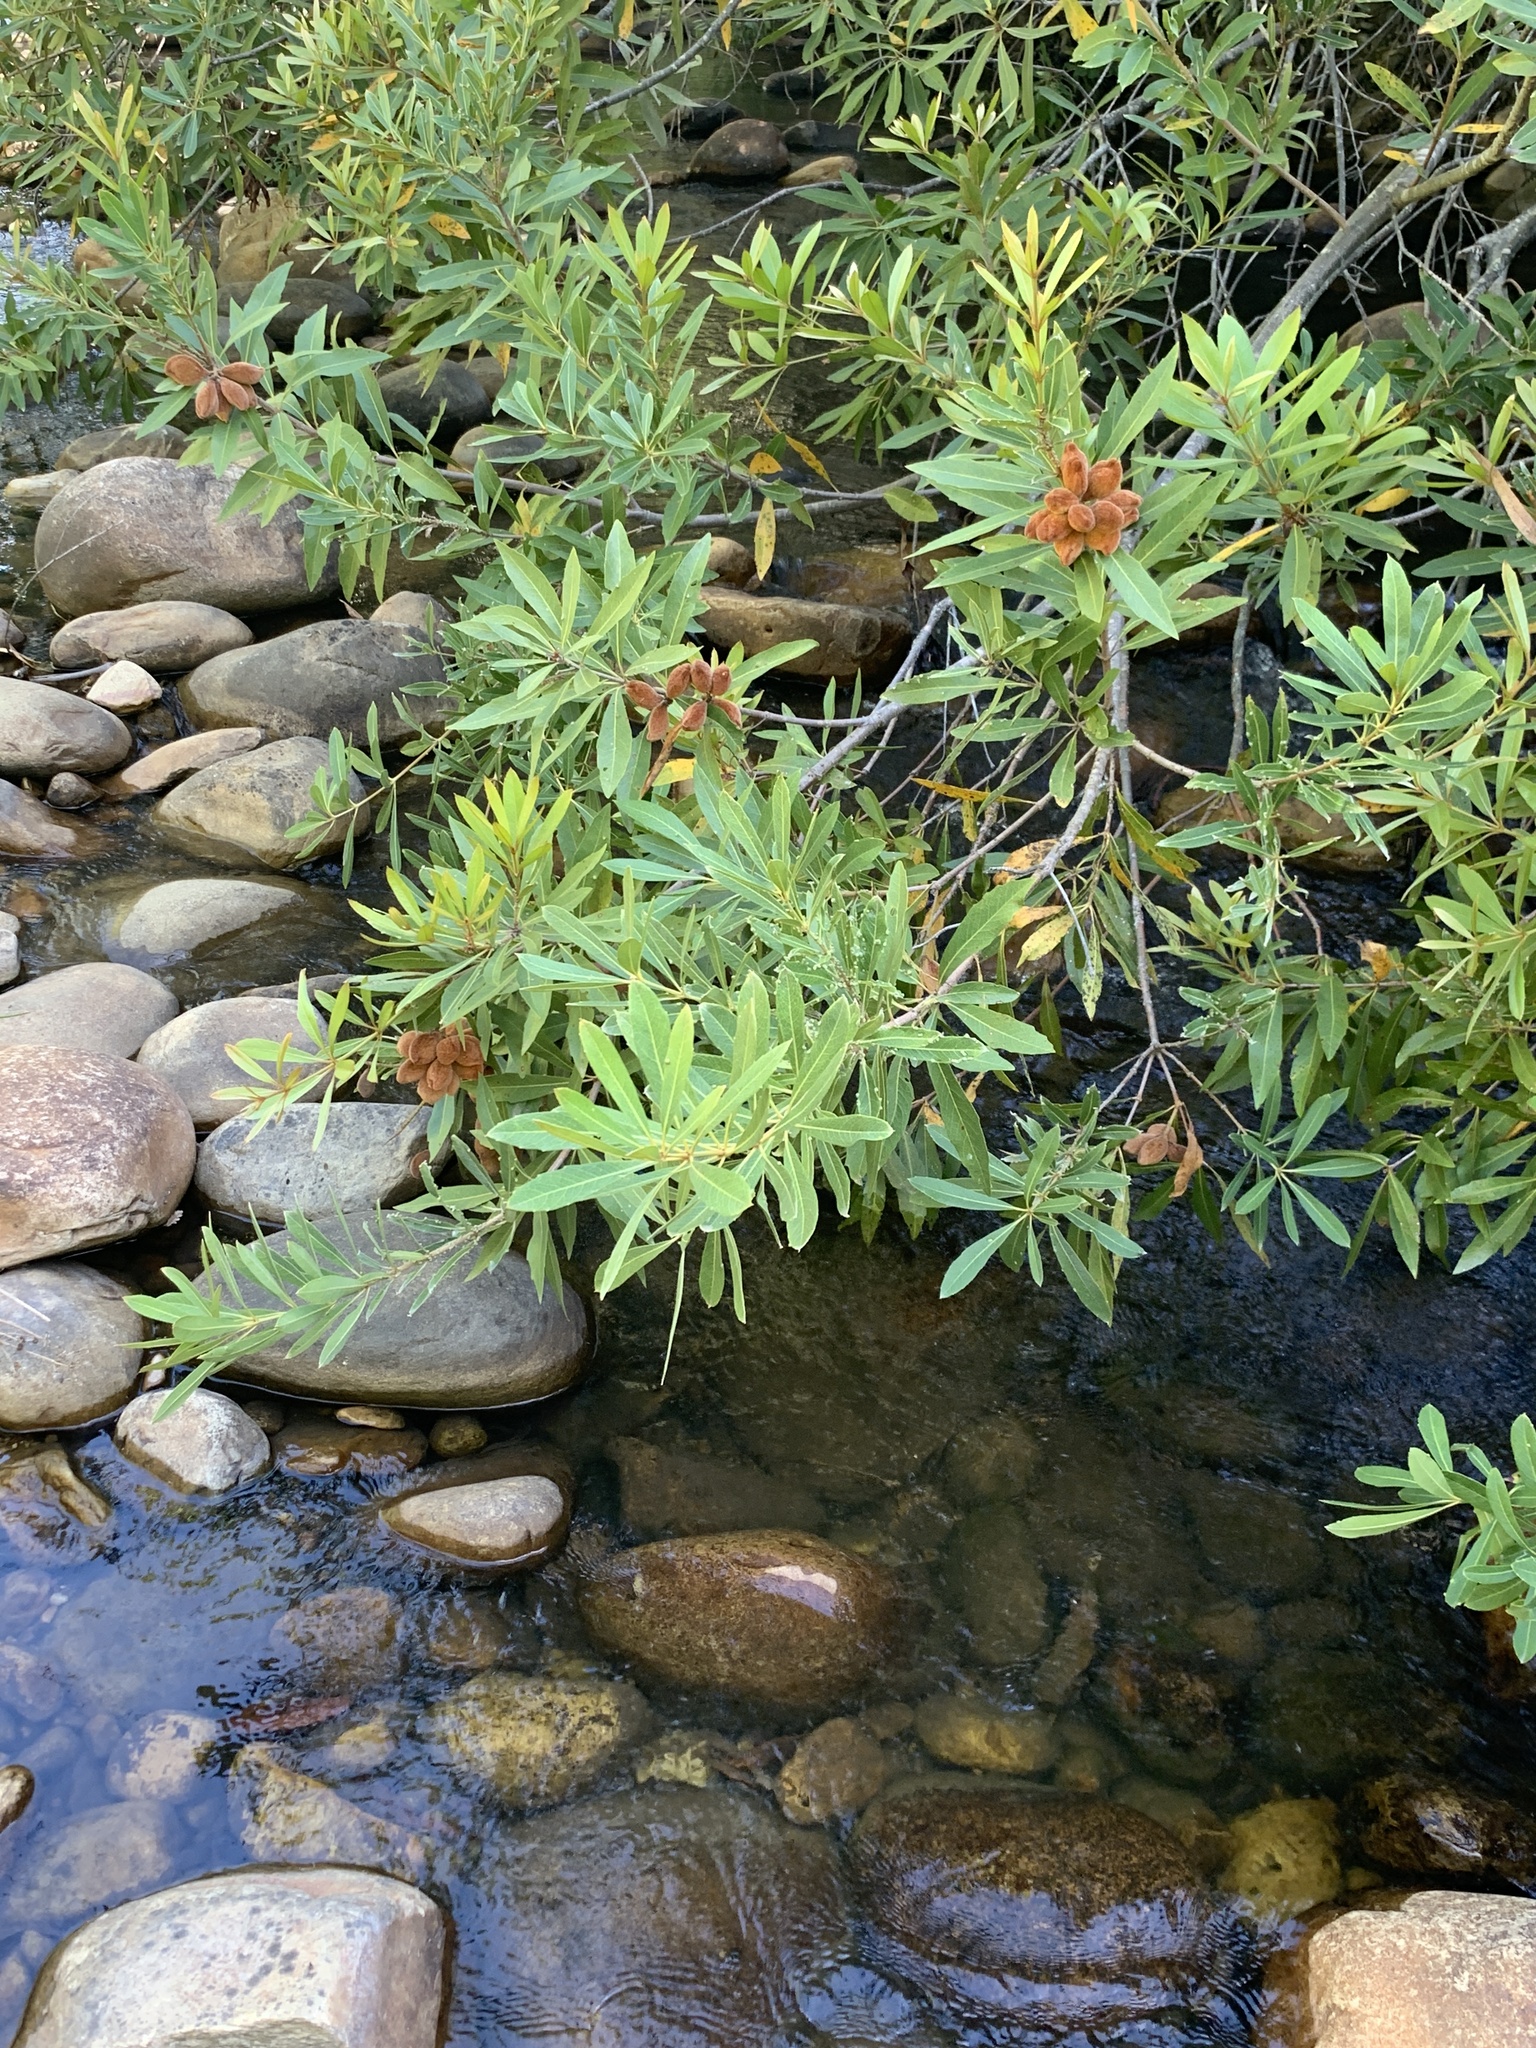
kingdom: Plantae
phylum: Tracheophyta
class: Magnoliopsida
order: Proteales
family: Proteaceae
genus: Brabejum
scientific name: Brabejum stellatifolium
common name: Wild almond
